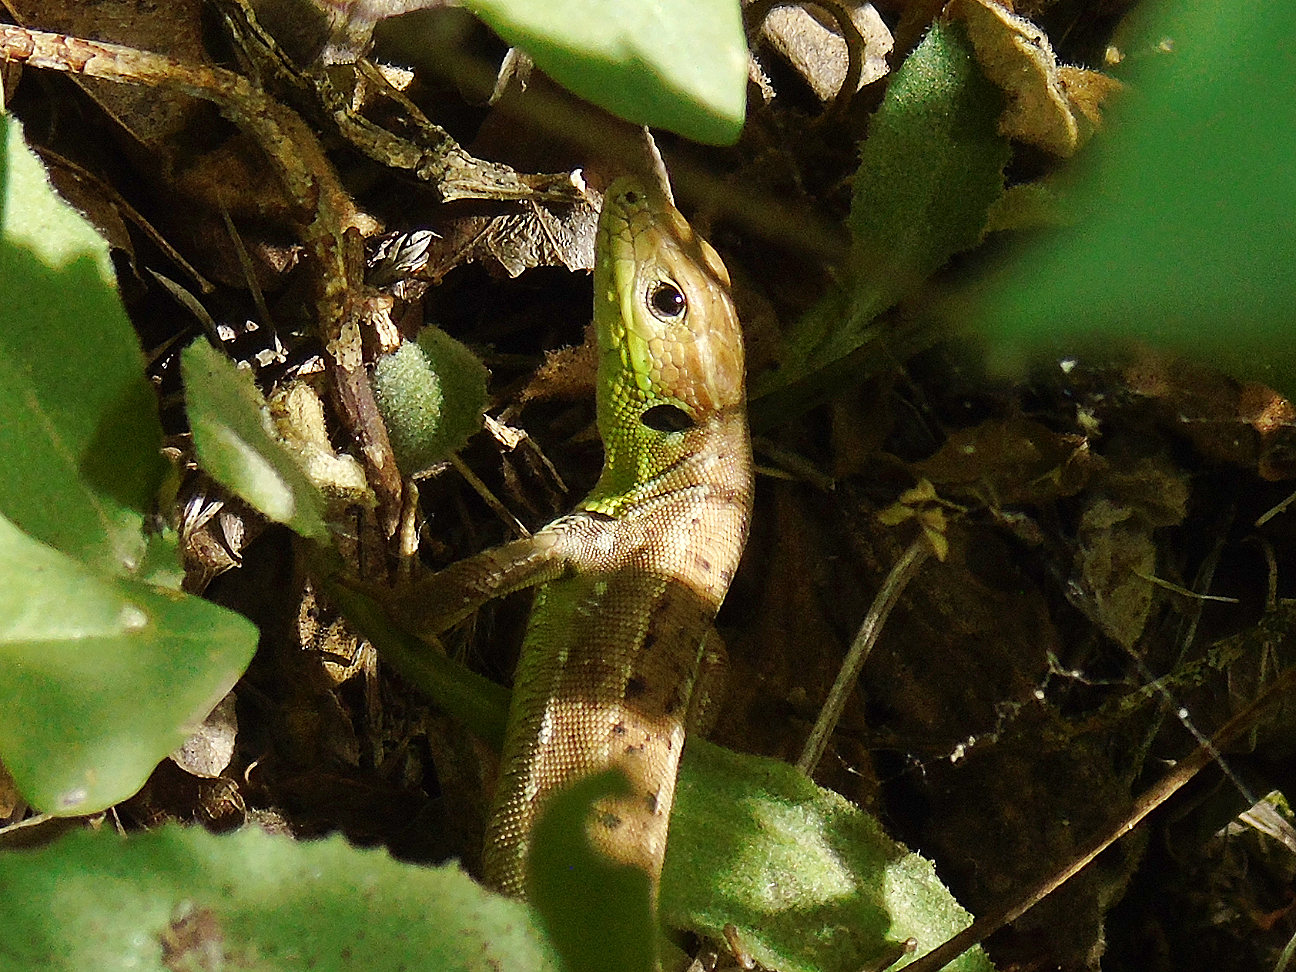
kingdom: Animalia
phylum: Chordata
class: Squamata
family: Lacertidae
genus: Lacerta
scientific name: Lacerta viridis
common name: European green lizard
